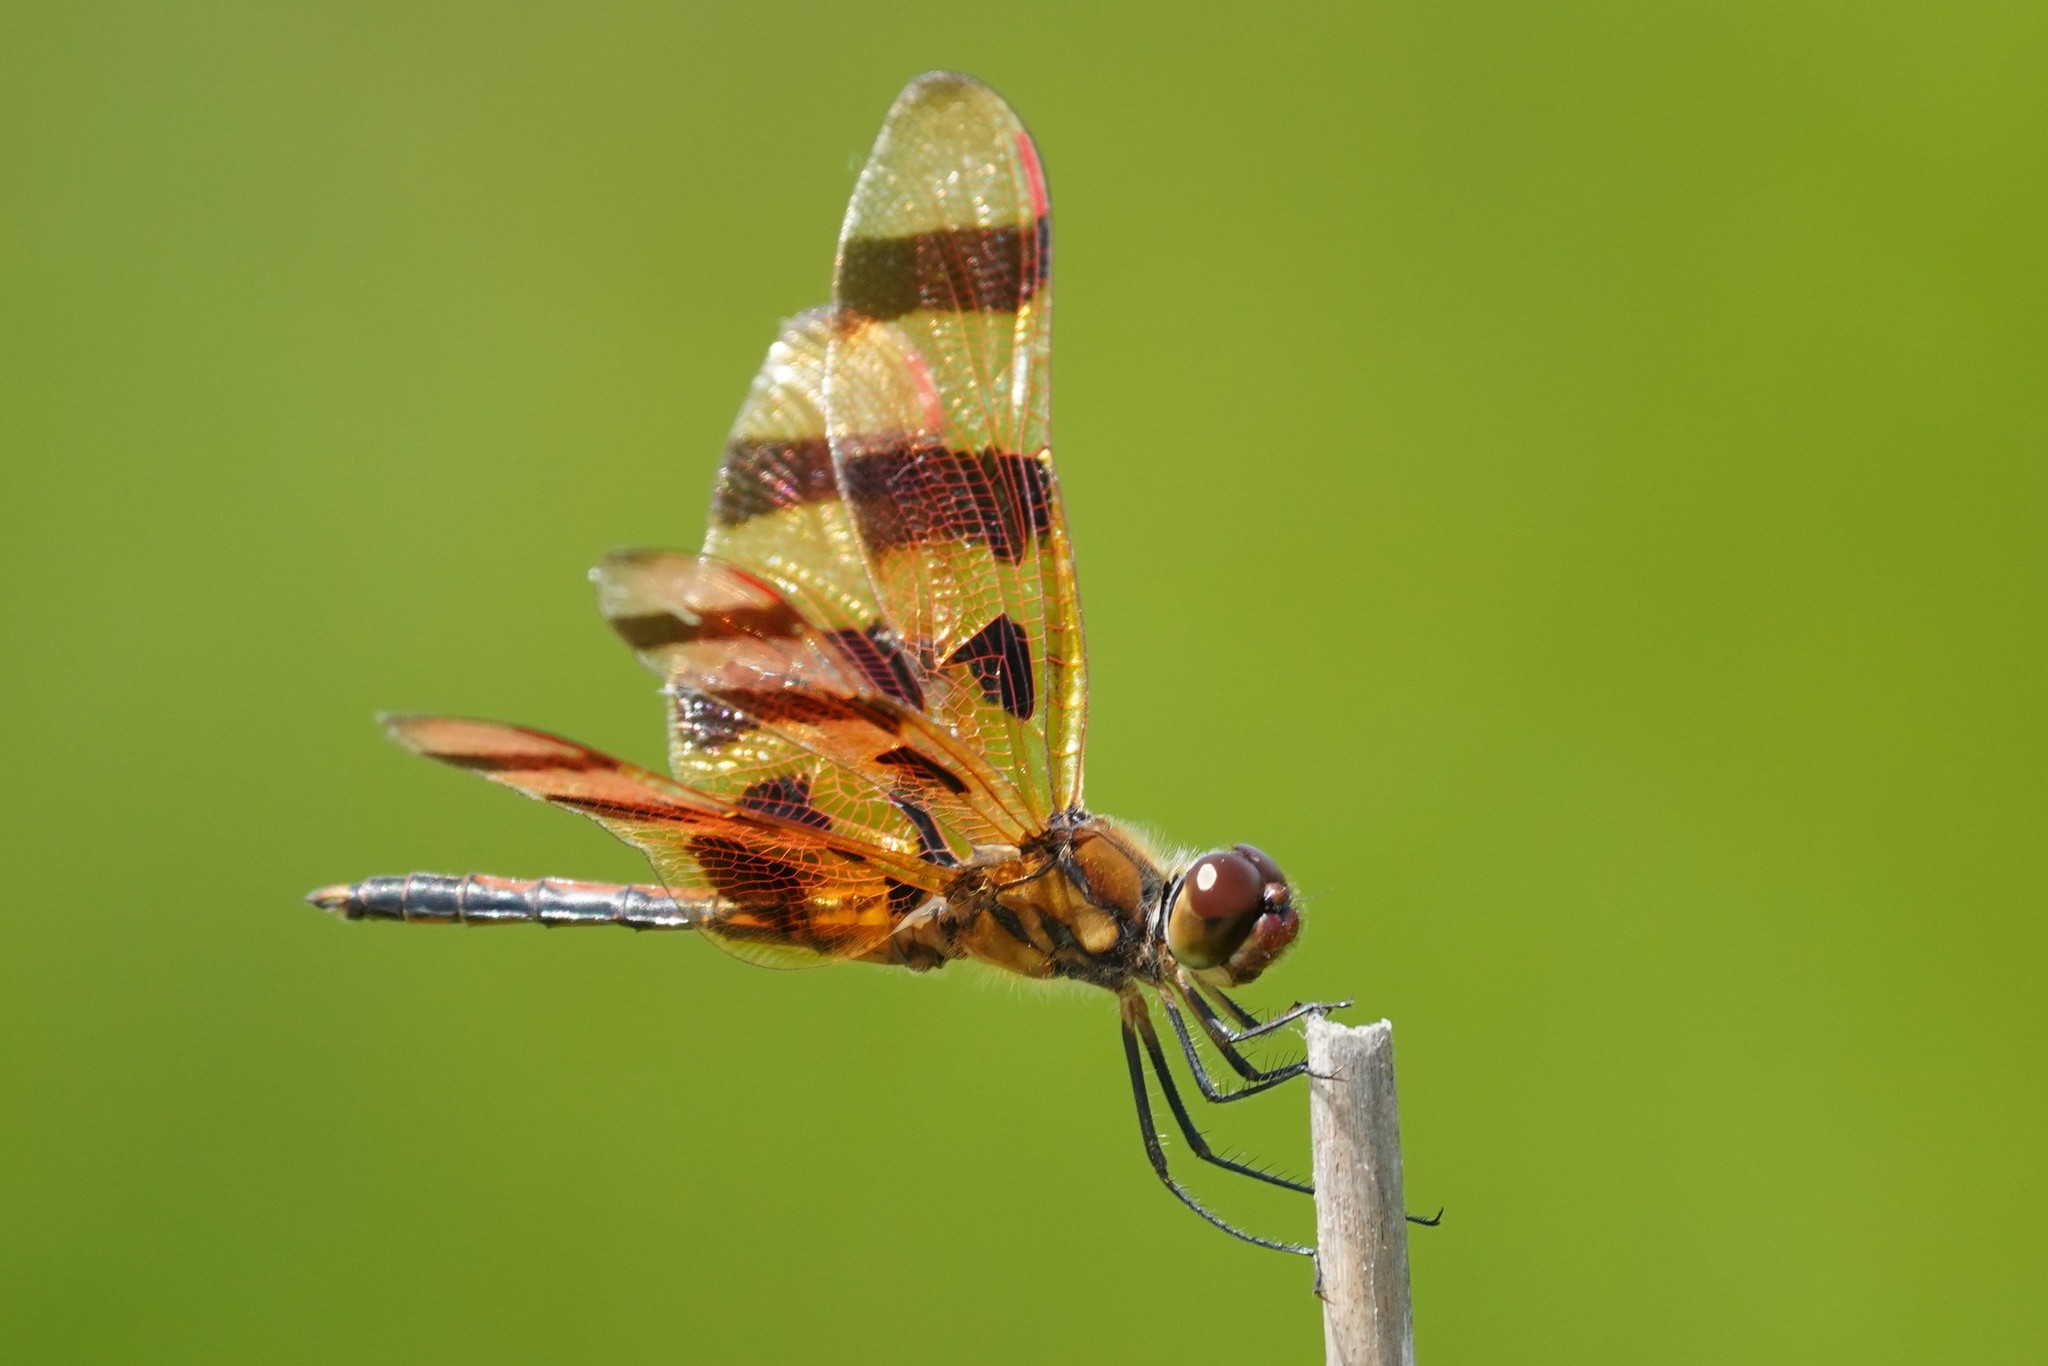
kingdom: Animalia
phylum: Arthropoda
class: Insecta
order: Odonata
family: Libellulidae
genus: Celithemis
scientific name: Celithemis eponina
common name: Halloween pennant
